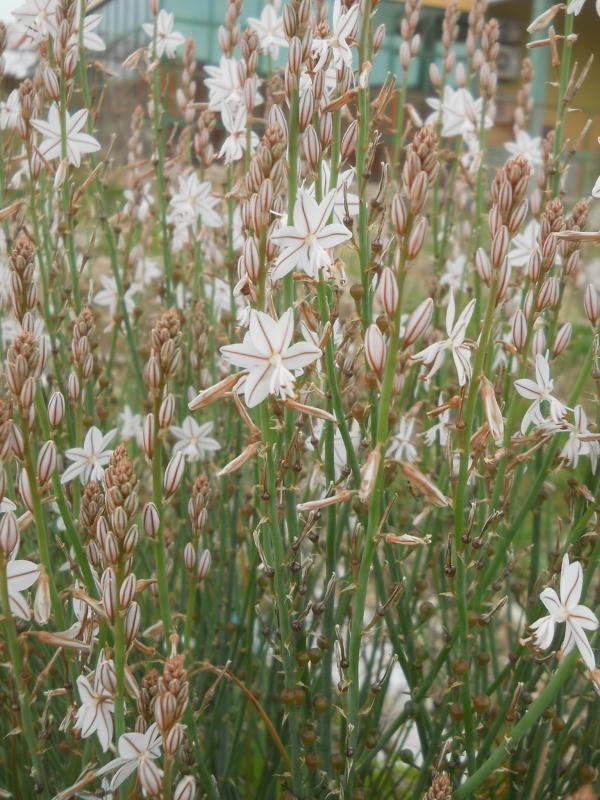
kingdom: Plantae
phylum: Tracheophyta
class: Liliopsida
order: Asparagales
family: Asphodelaceae
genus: Asphodelus
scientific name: Asphodelus fistulosus
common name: Onionweed
